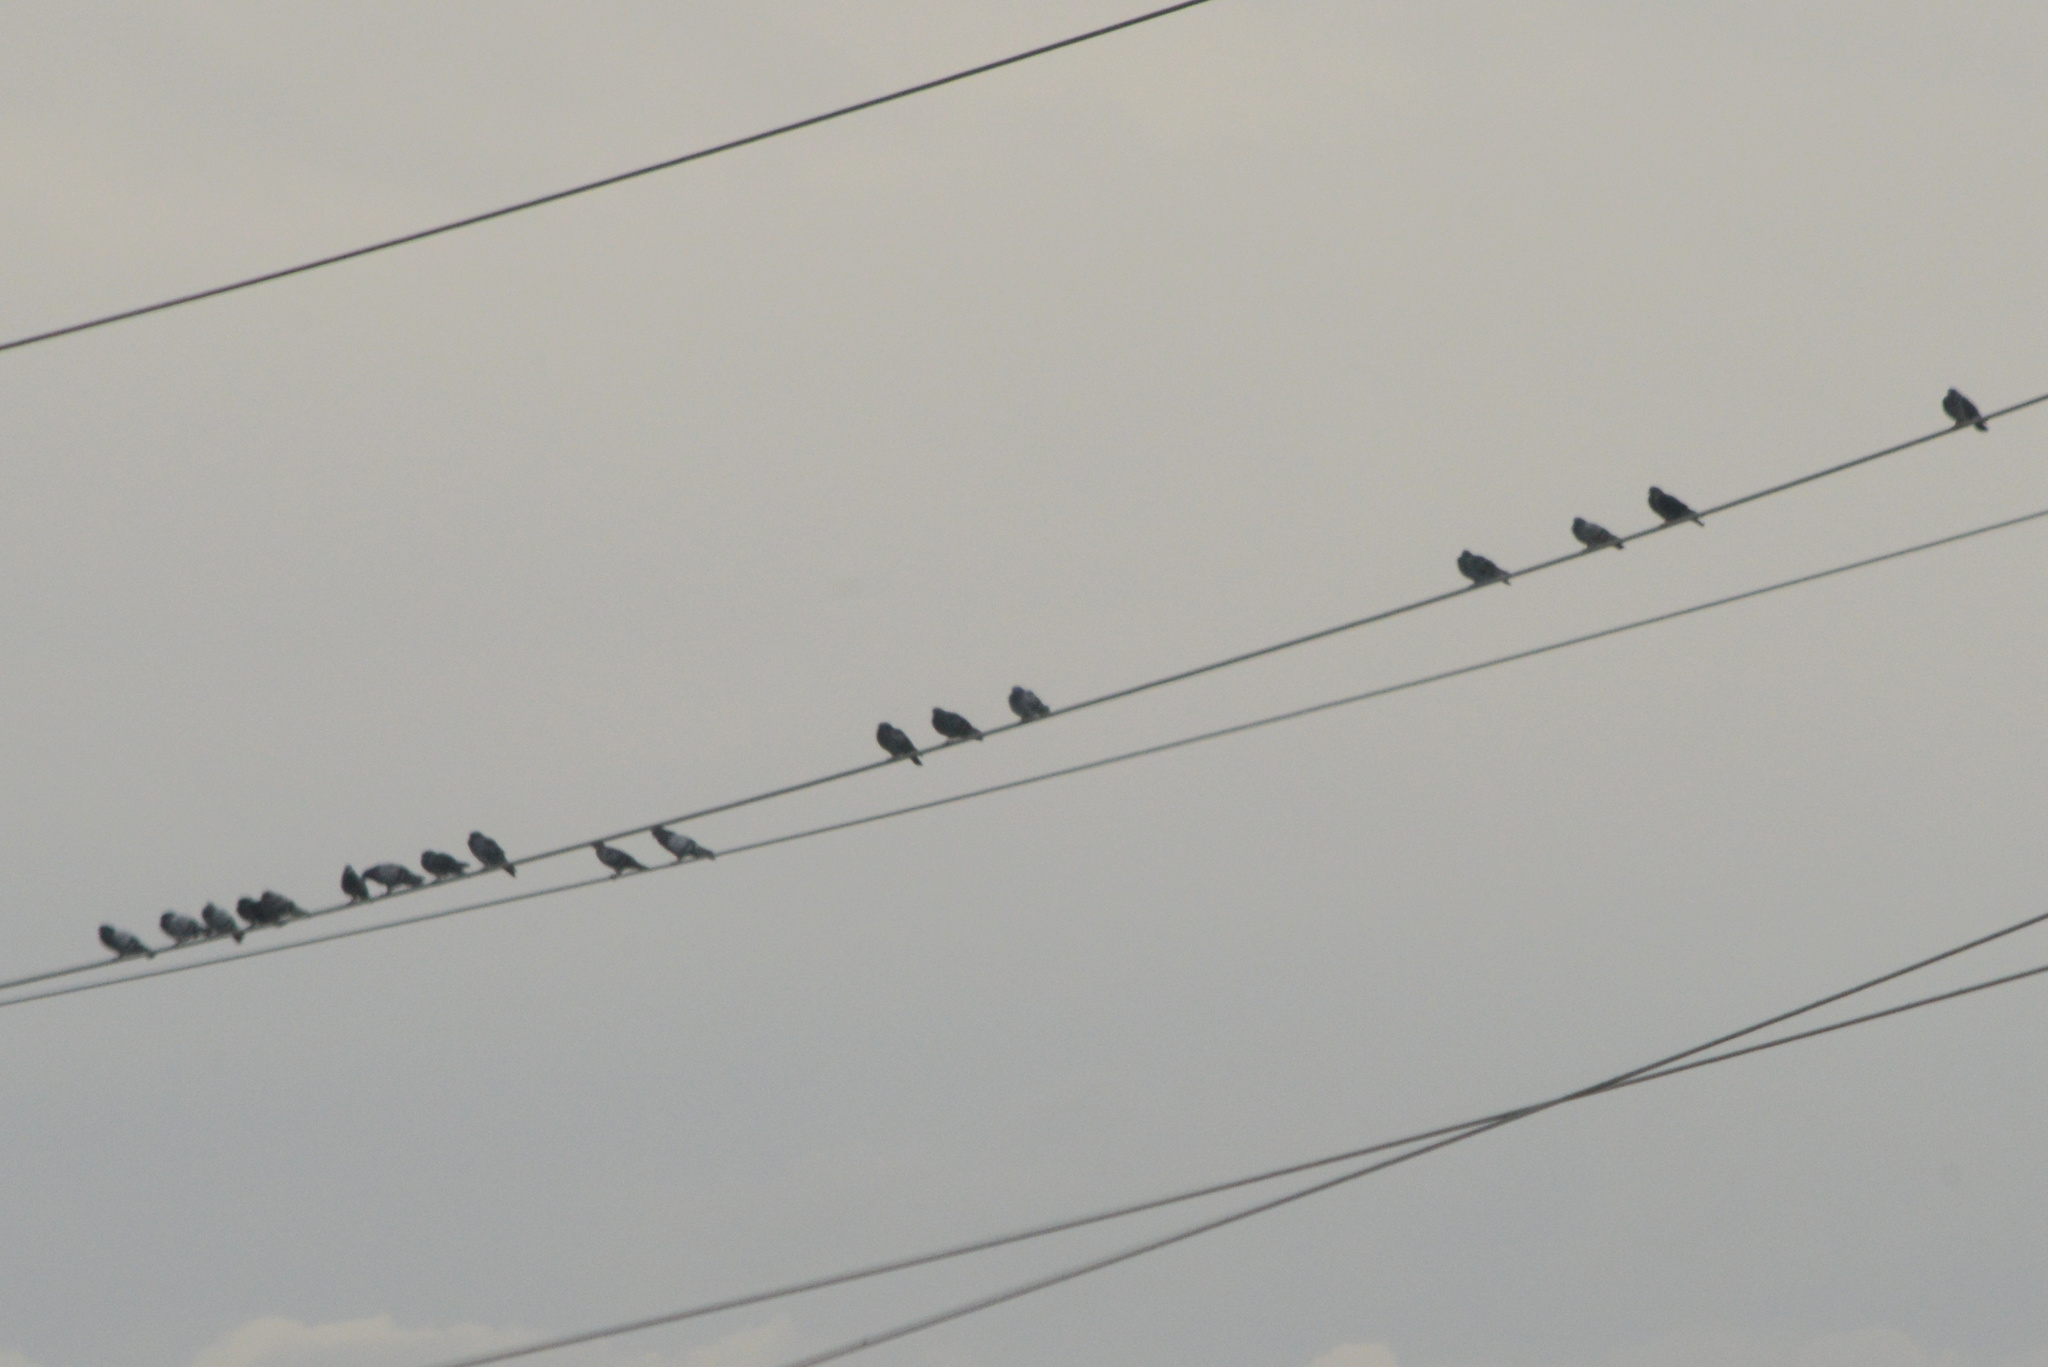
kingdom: Animalia
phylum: Chordata
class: Aves
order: Columbiformes
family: Columbidae
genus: Columba
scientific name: Columba livia
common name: Rock pigeon
